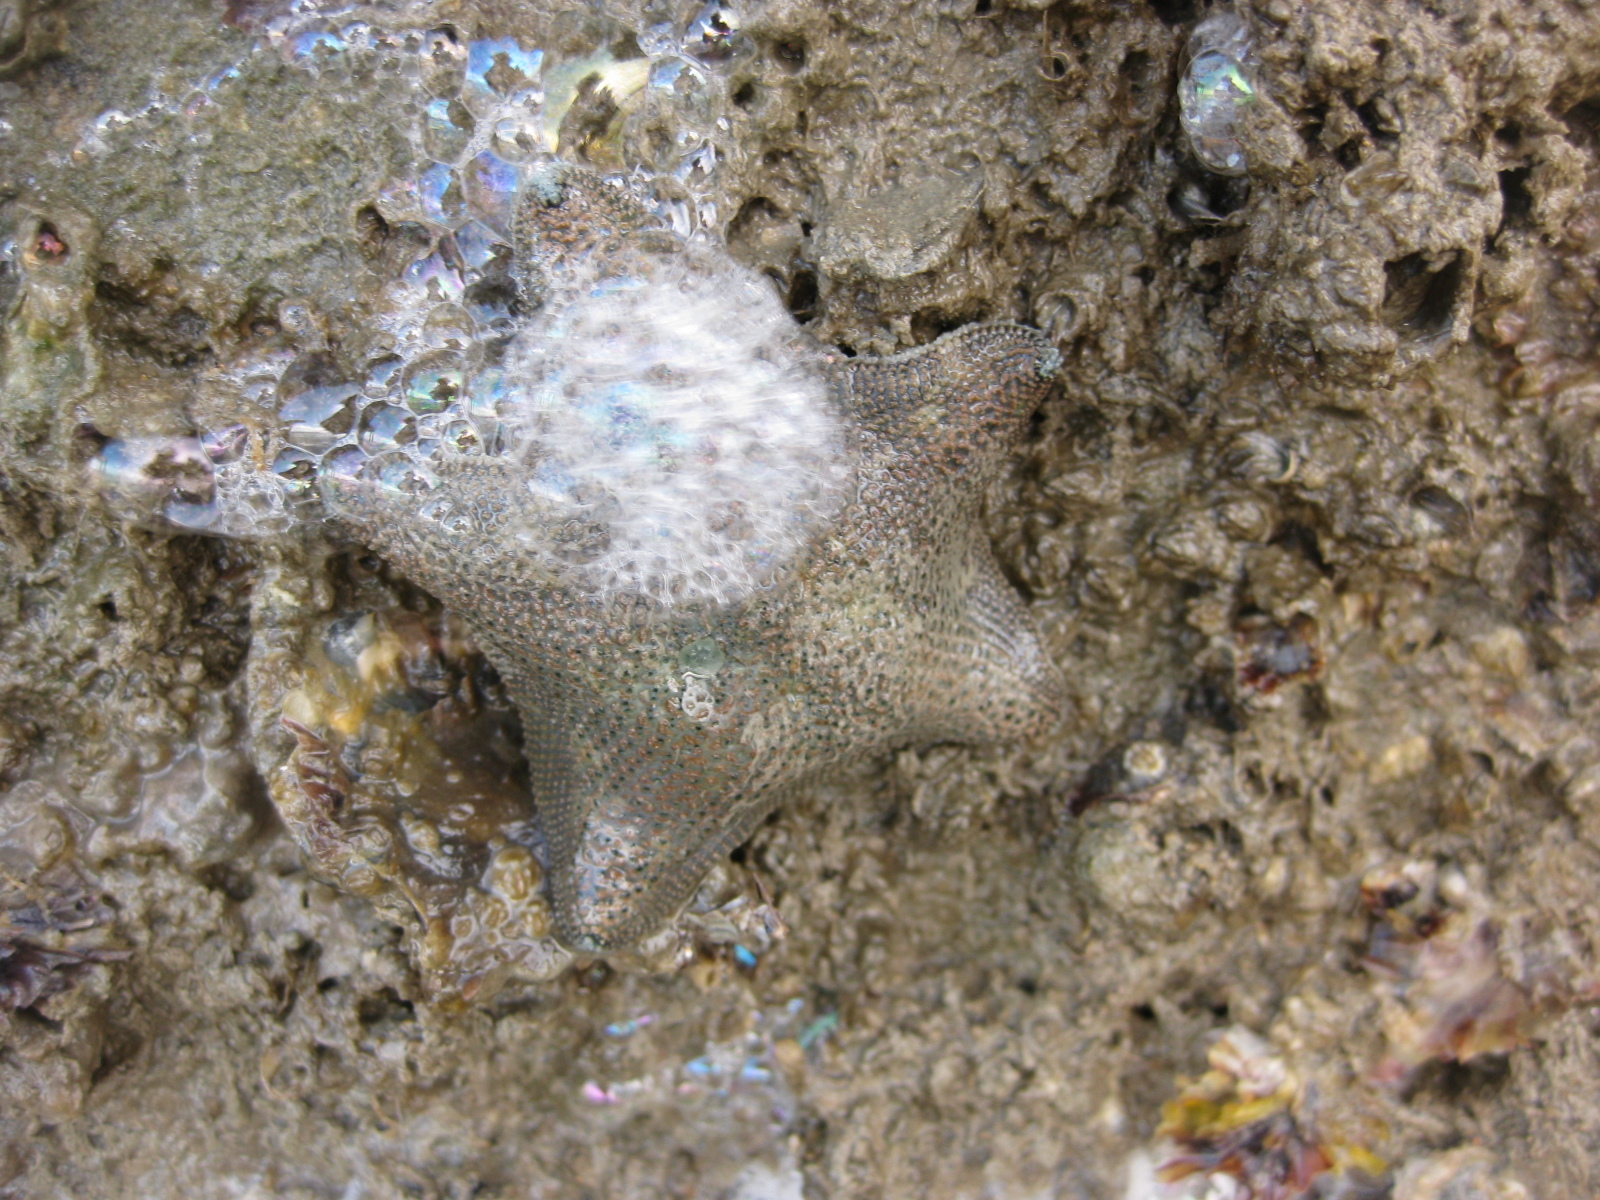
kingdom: Animalia
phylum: Echinodermata
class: Asteroidea
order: Valvatida
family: Asterinidae
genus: Patiriella
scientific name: Patiriella regularis
